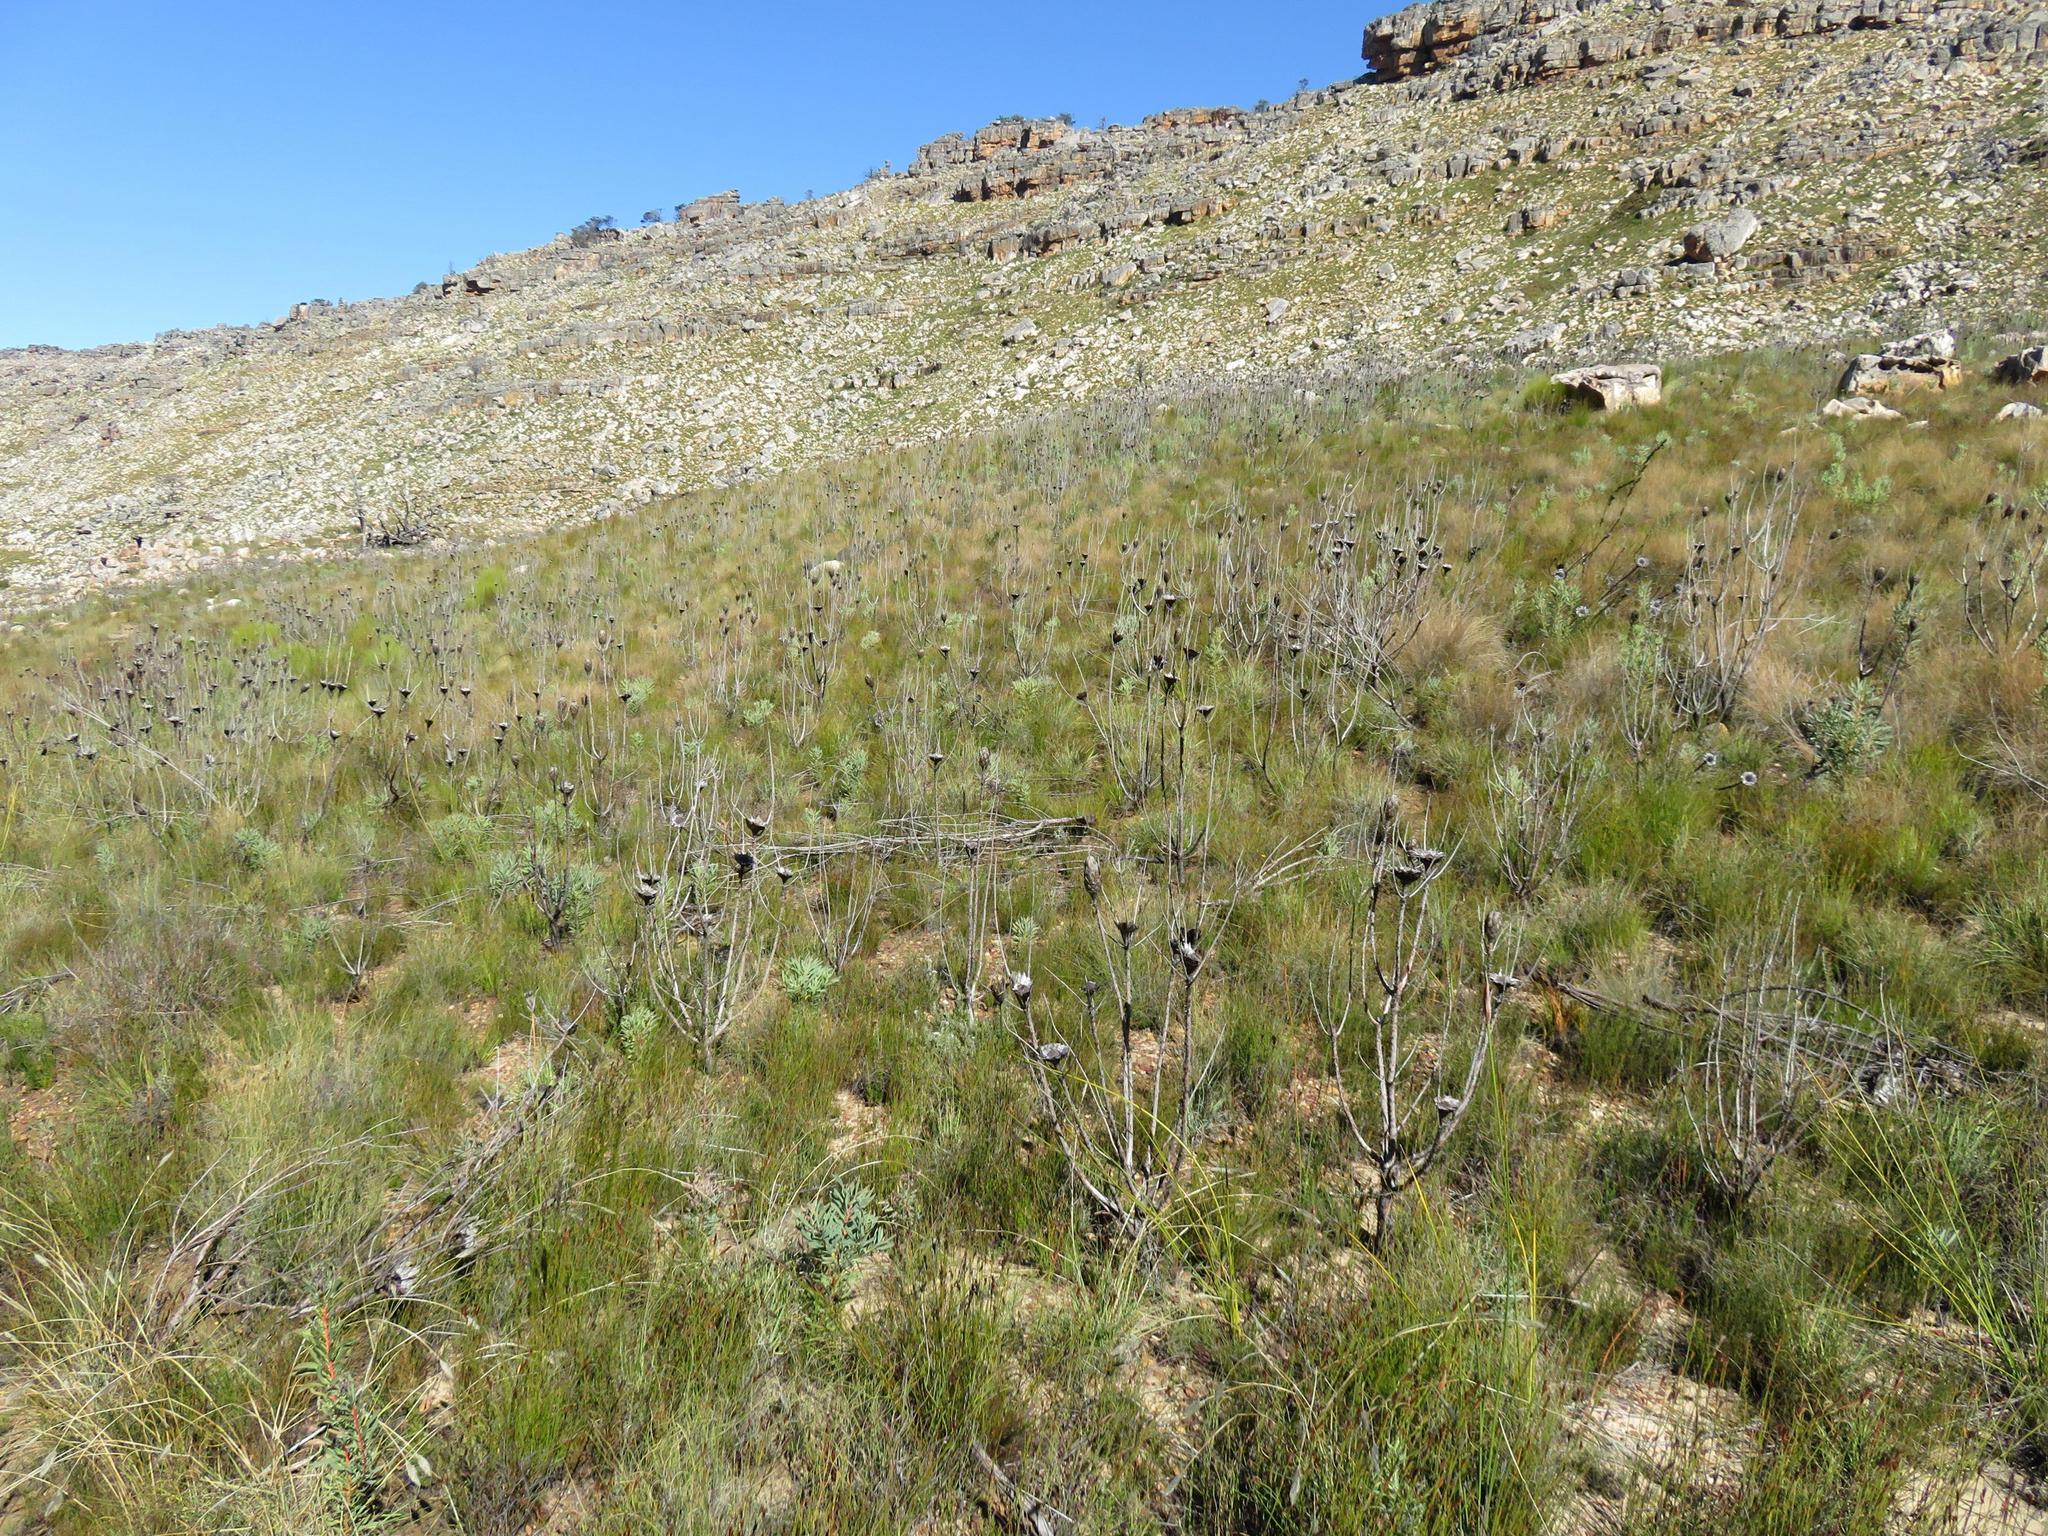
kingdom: Plantae
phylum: Tracheophyta
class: Magnoliopsida
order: Proteales
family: Proteaceae
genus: Protea
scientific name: Protea repens
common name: Sugarbush
